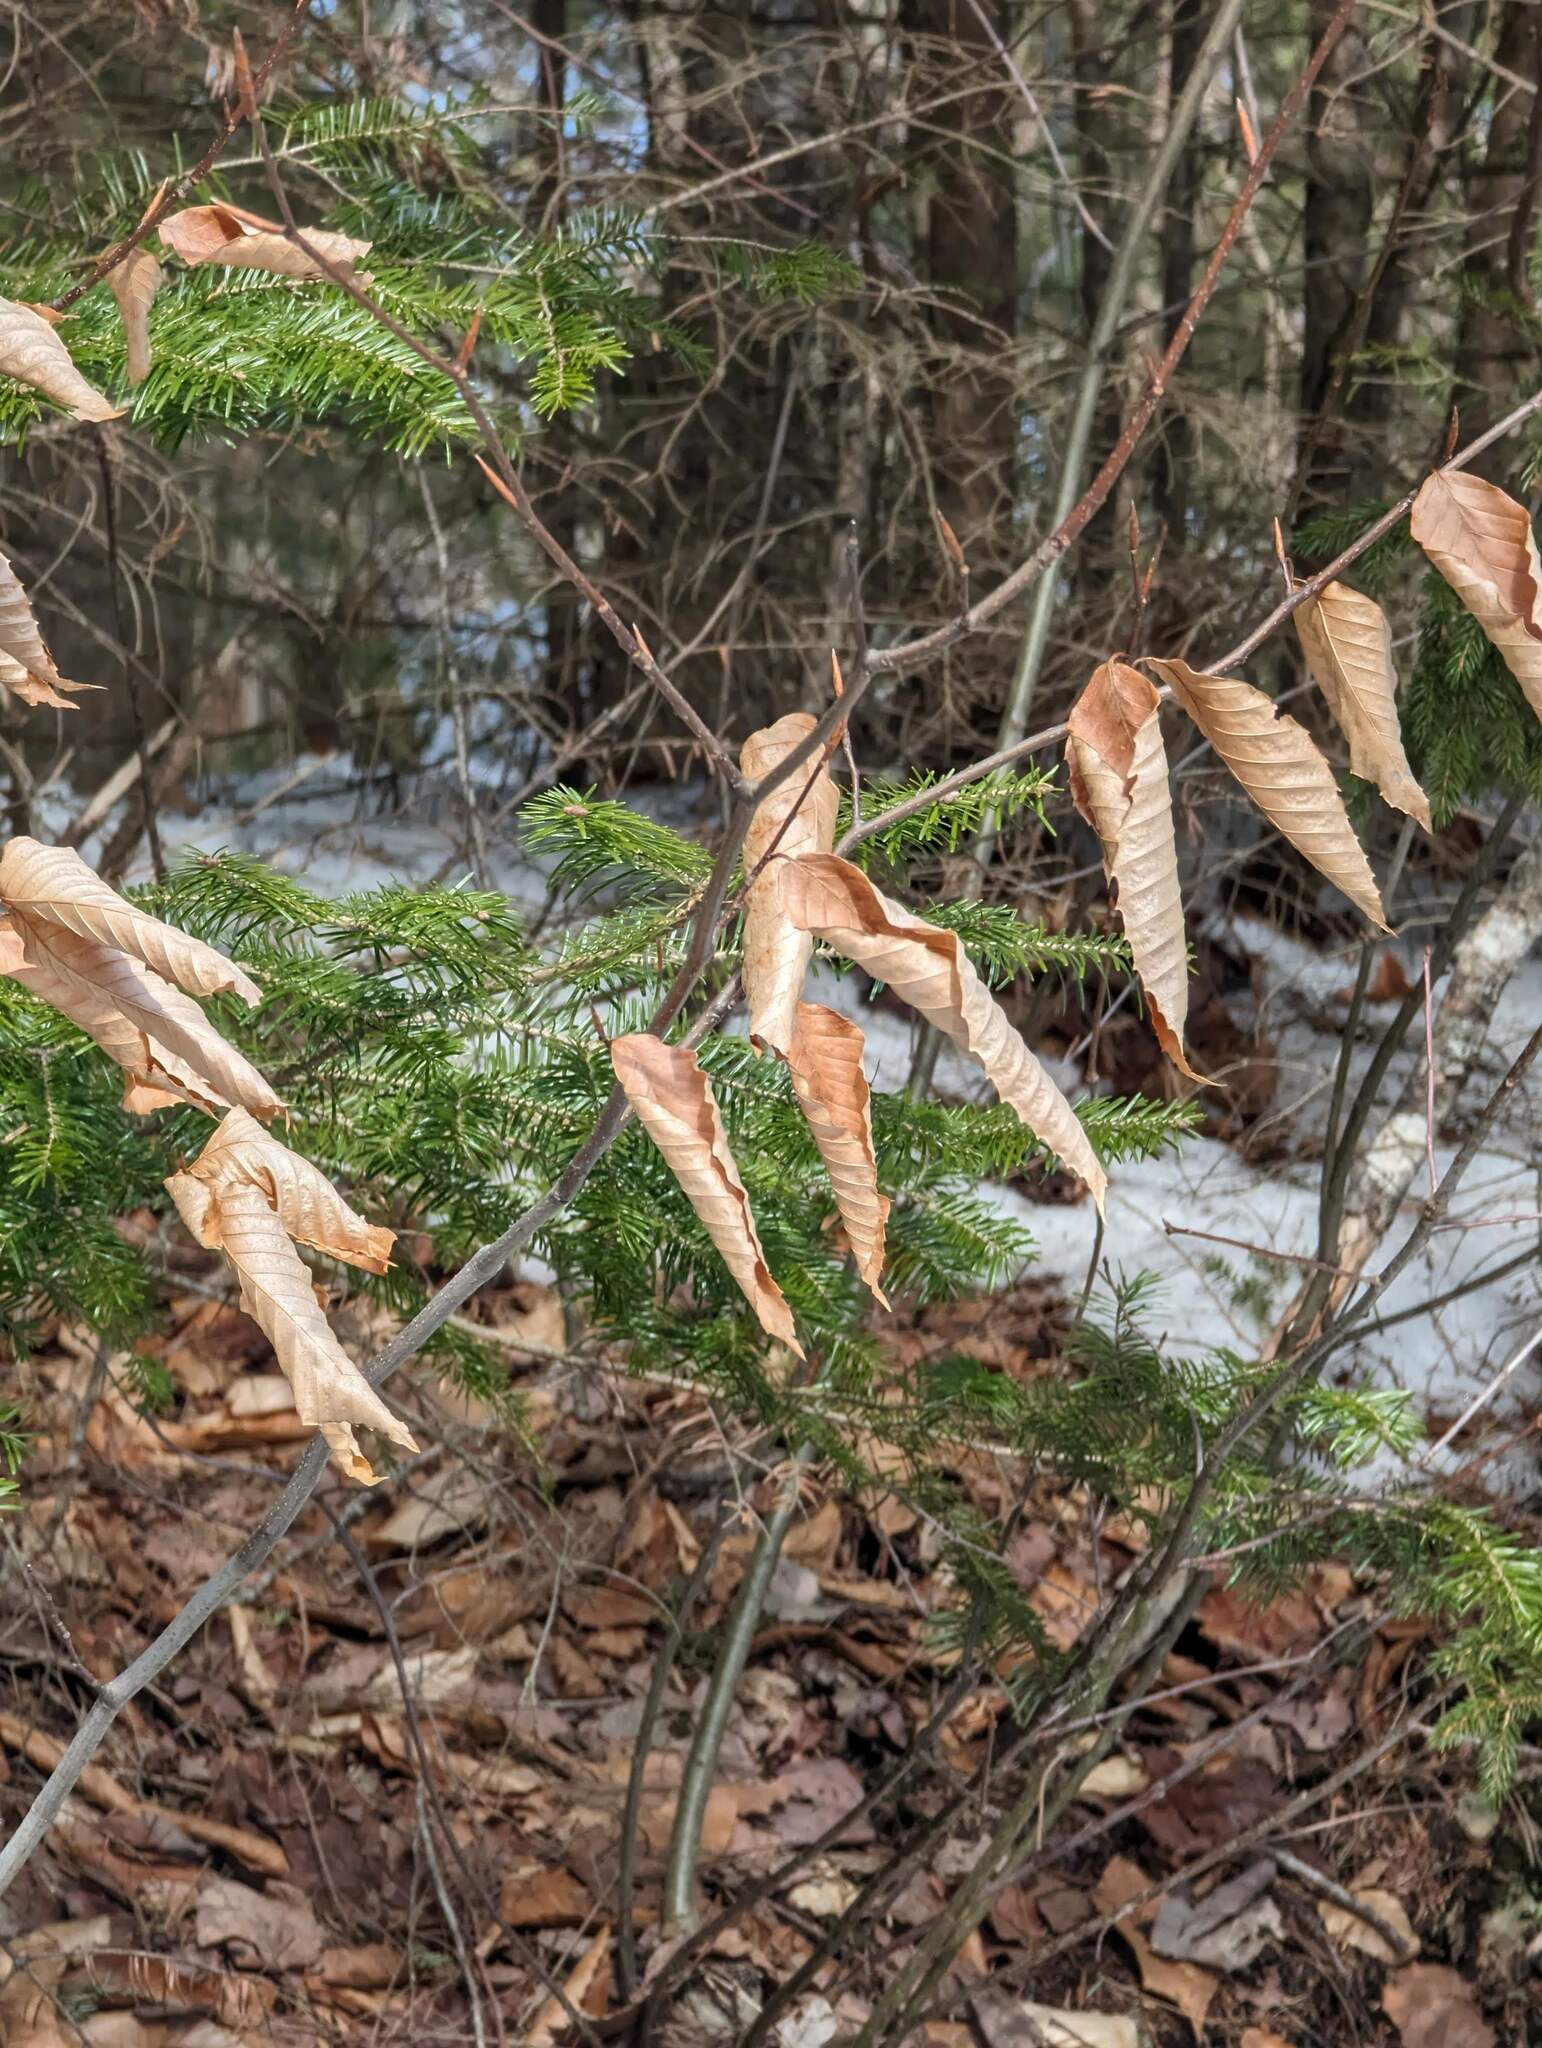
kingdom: Plantae
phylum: Tracheophyta
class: Magnoliopsida
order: Fagales
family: Fagaceae
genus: Fagus
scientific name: Fagus grandifolia
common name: American beech
